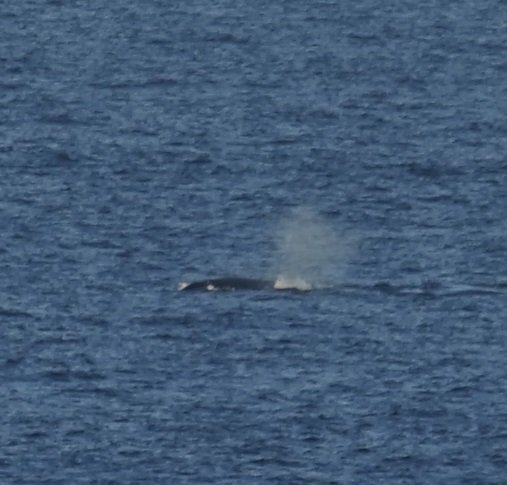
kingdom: Animalia
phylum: Chordata
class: Mammalia
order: Cetacea
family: Balaenopteridae
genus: Megaptera
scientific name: Megaptera novaeangliae
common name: Humpback whale
